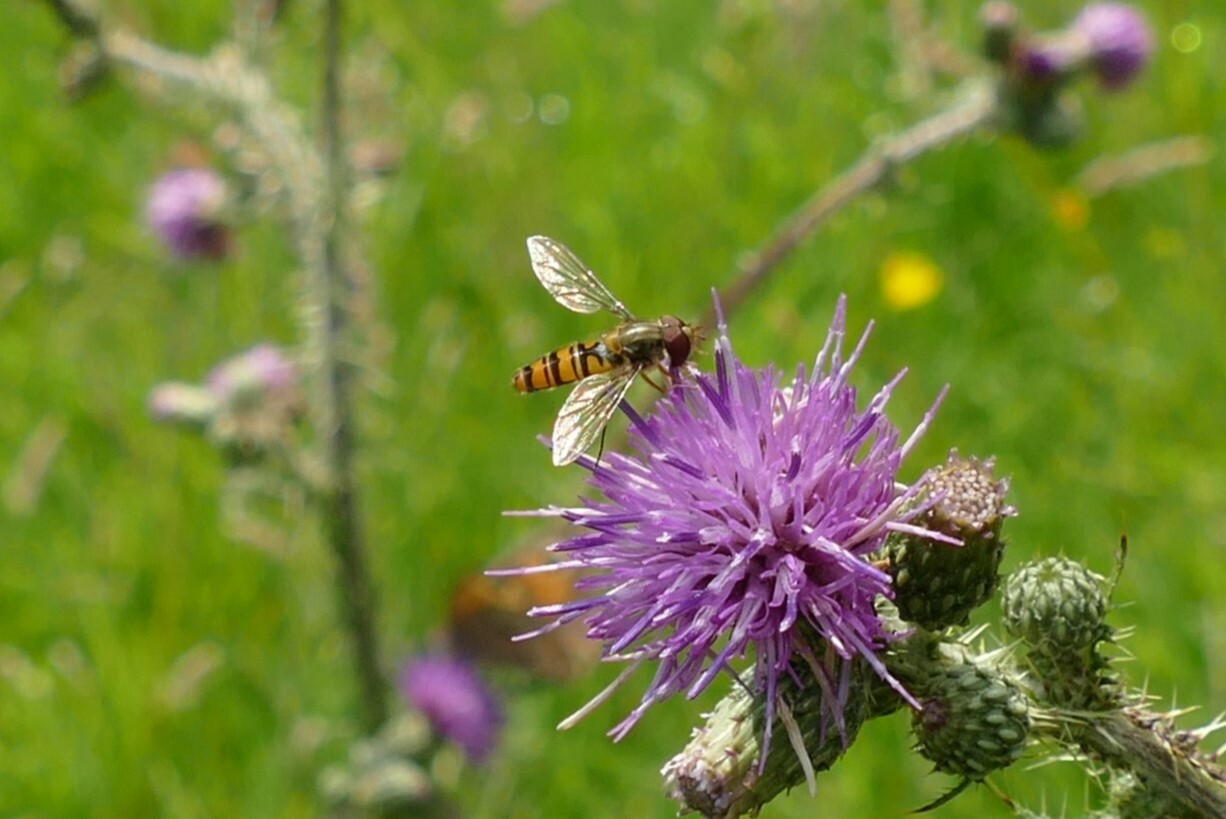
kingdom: Animalia
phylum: Arthropoda
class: Insecta
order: Diptera
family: Syrphidae
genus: Episyrphus
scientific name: Episyrphus balteatus
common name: Marmalade hoverfly
